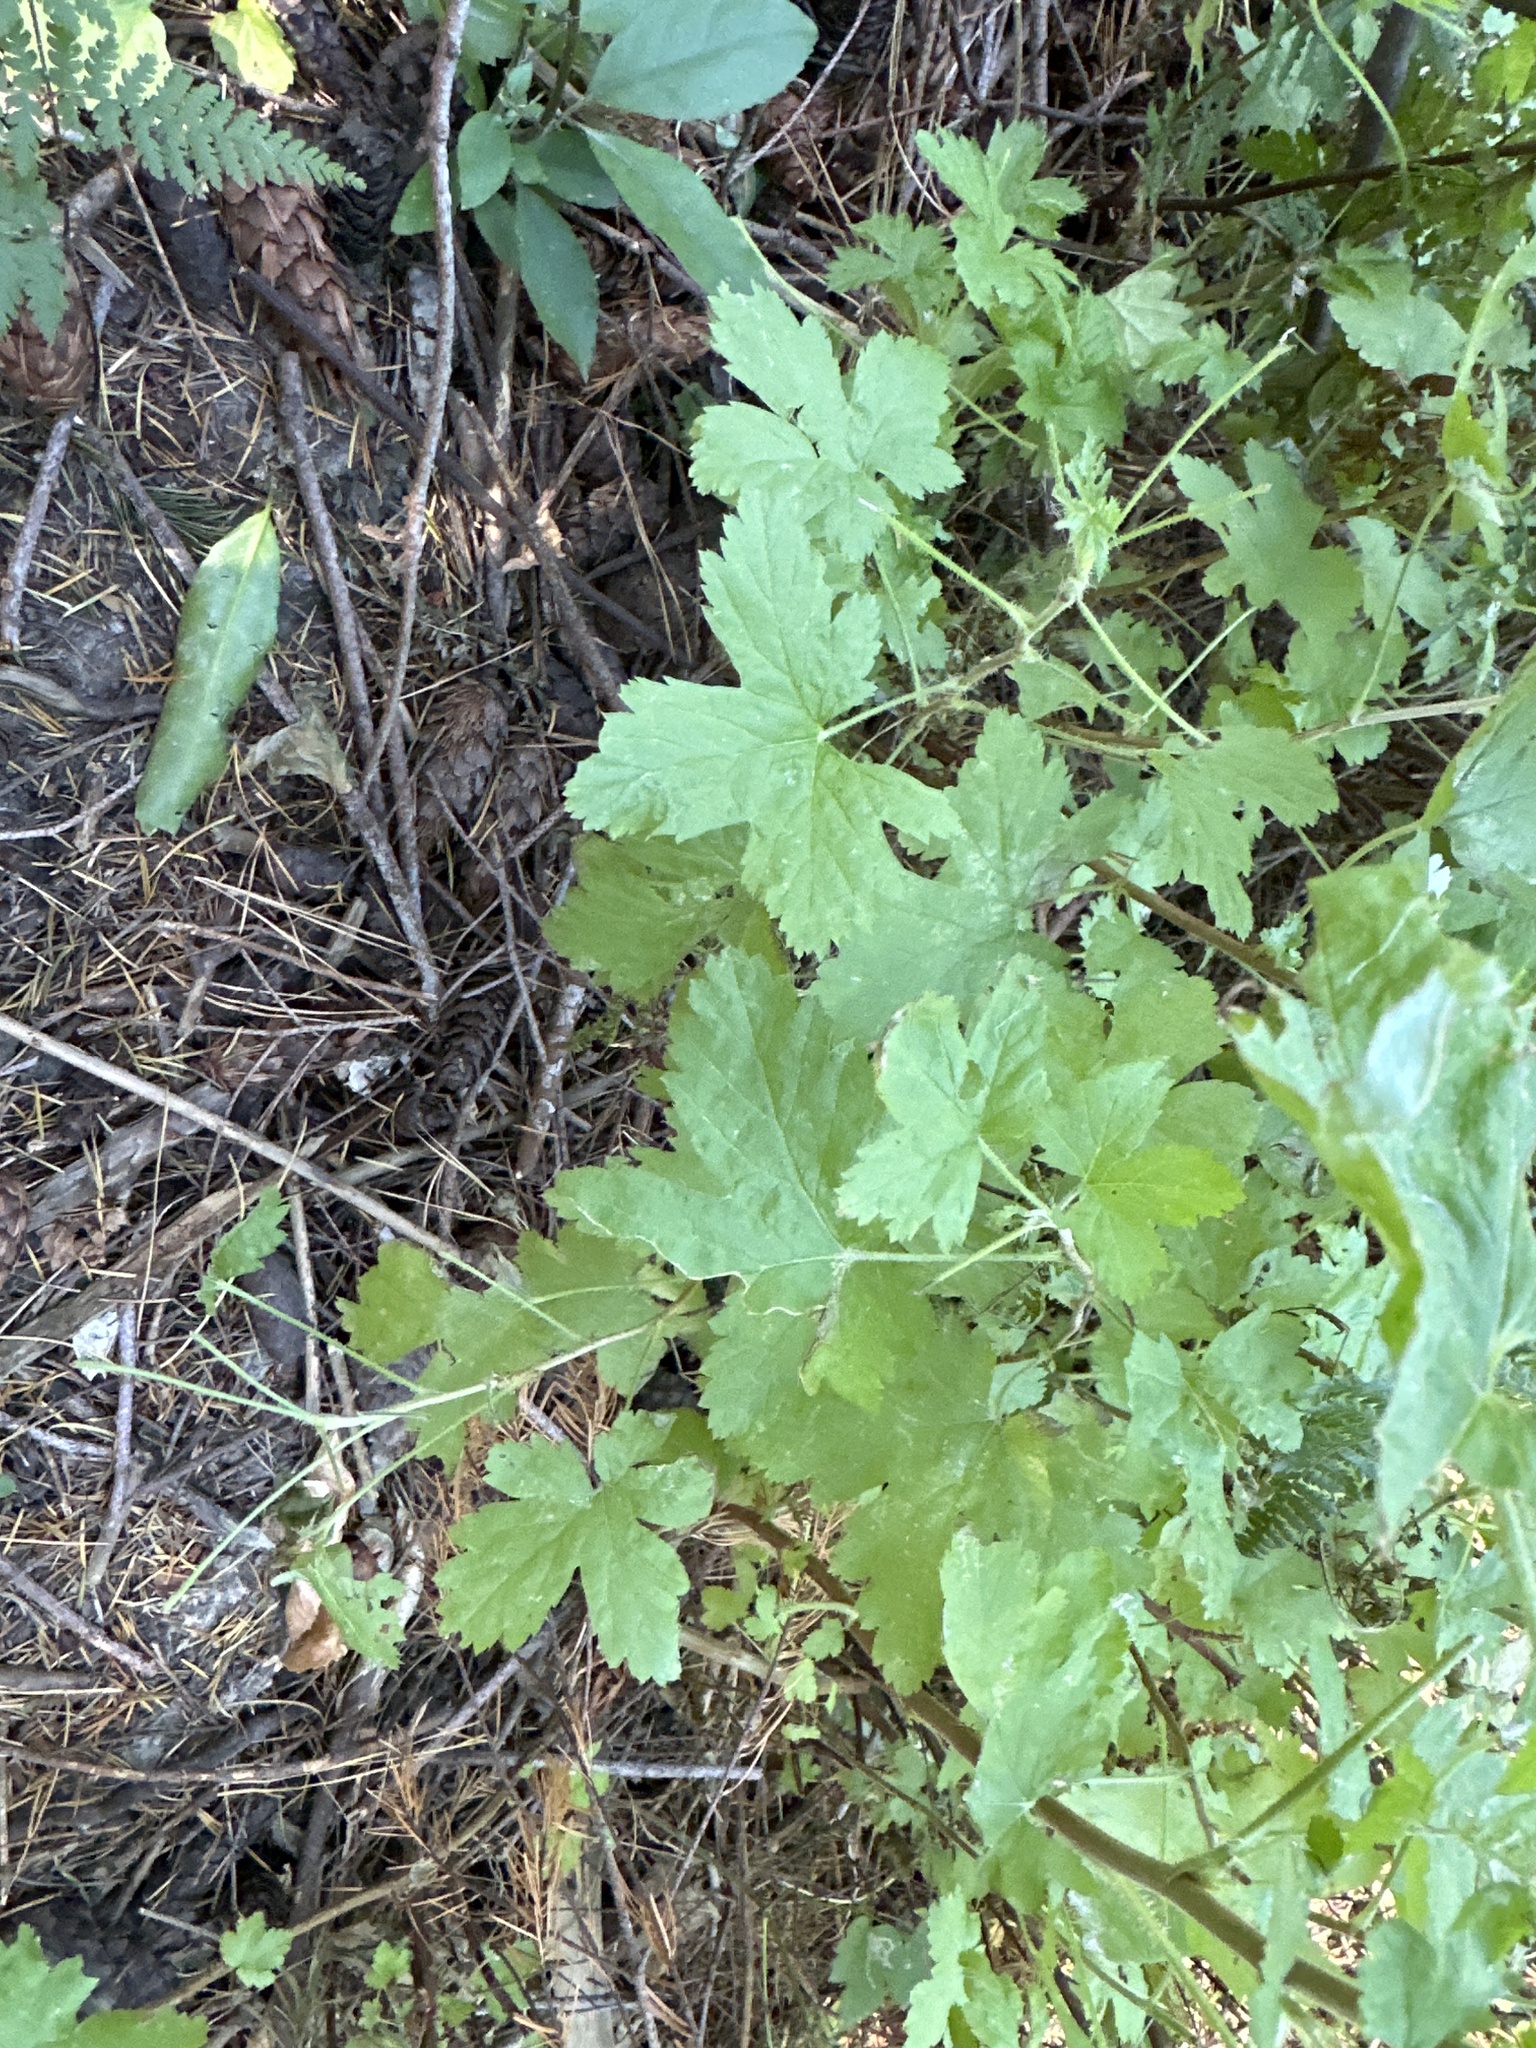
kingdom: Plantae
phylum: Tracheophyta
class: Magnoliopsida
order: Saxifragales
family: Grossulariaceae
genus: Ribes
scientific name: Ribes sanguineum
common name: Flowering currant
